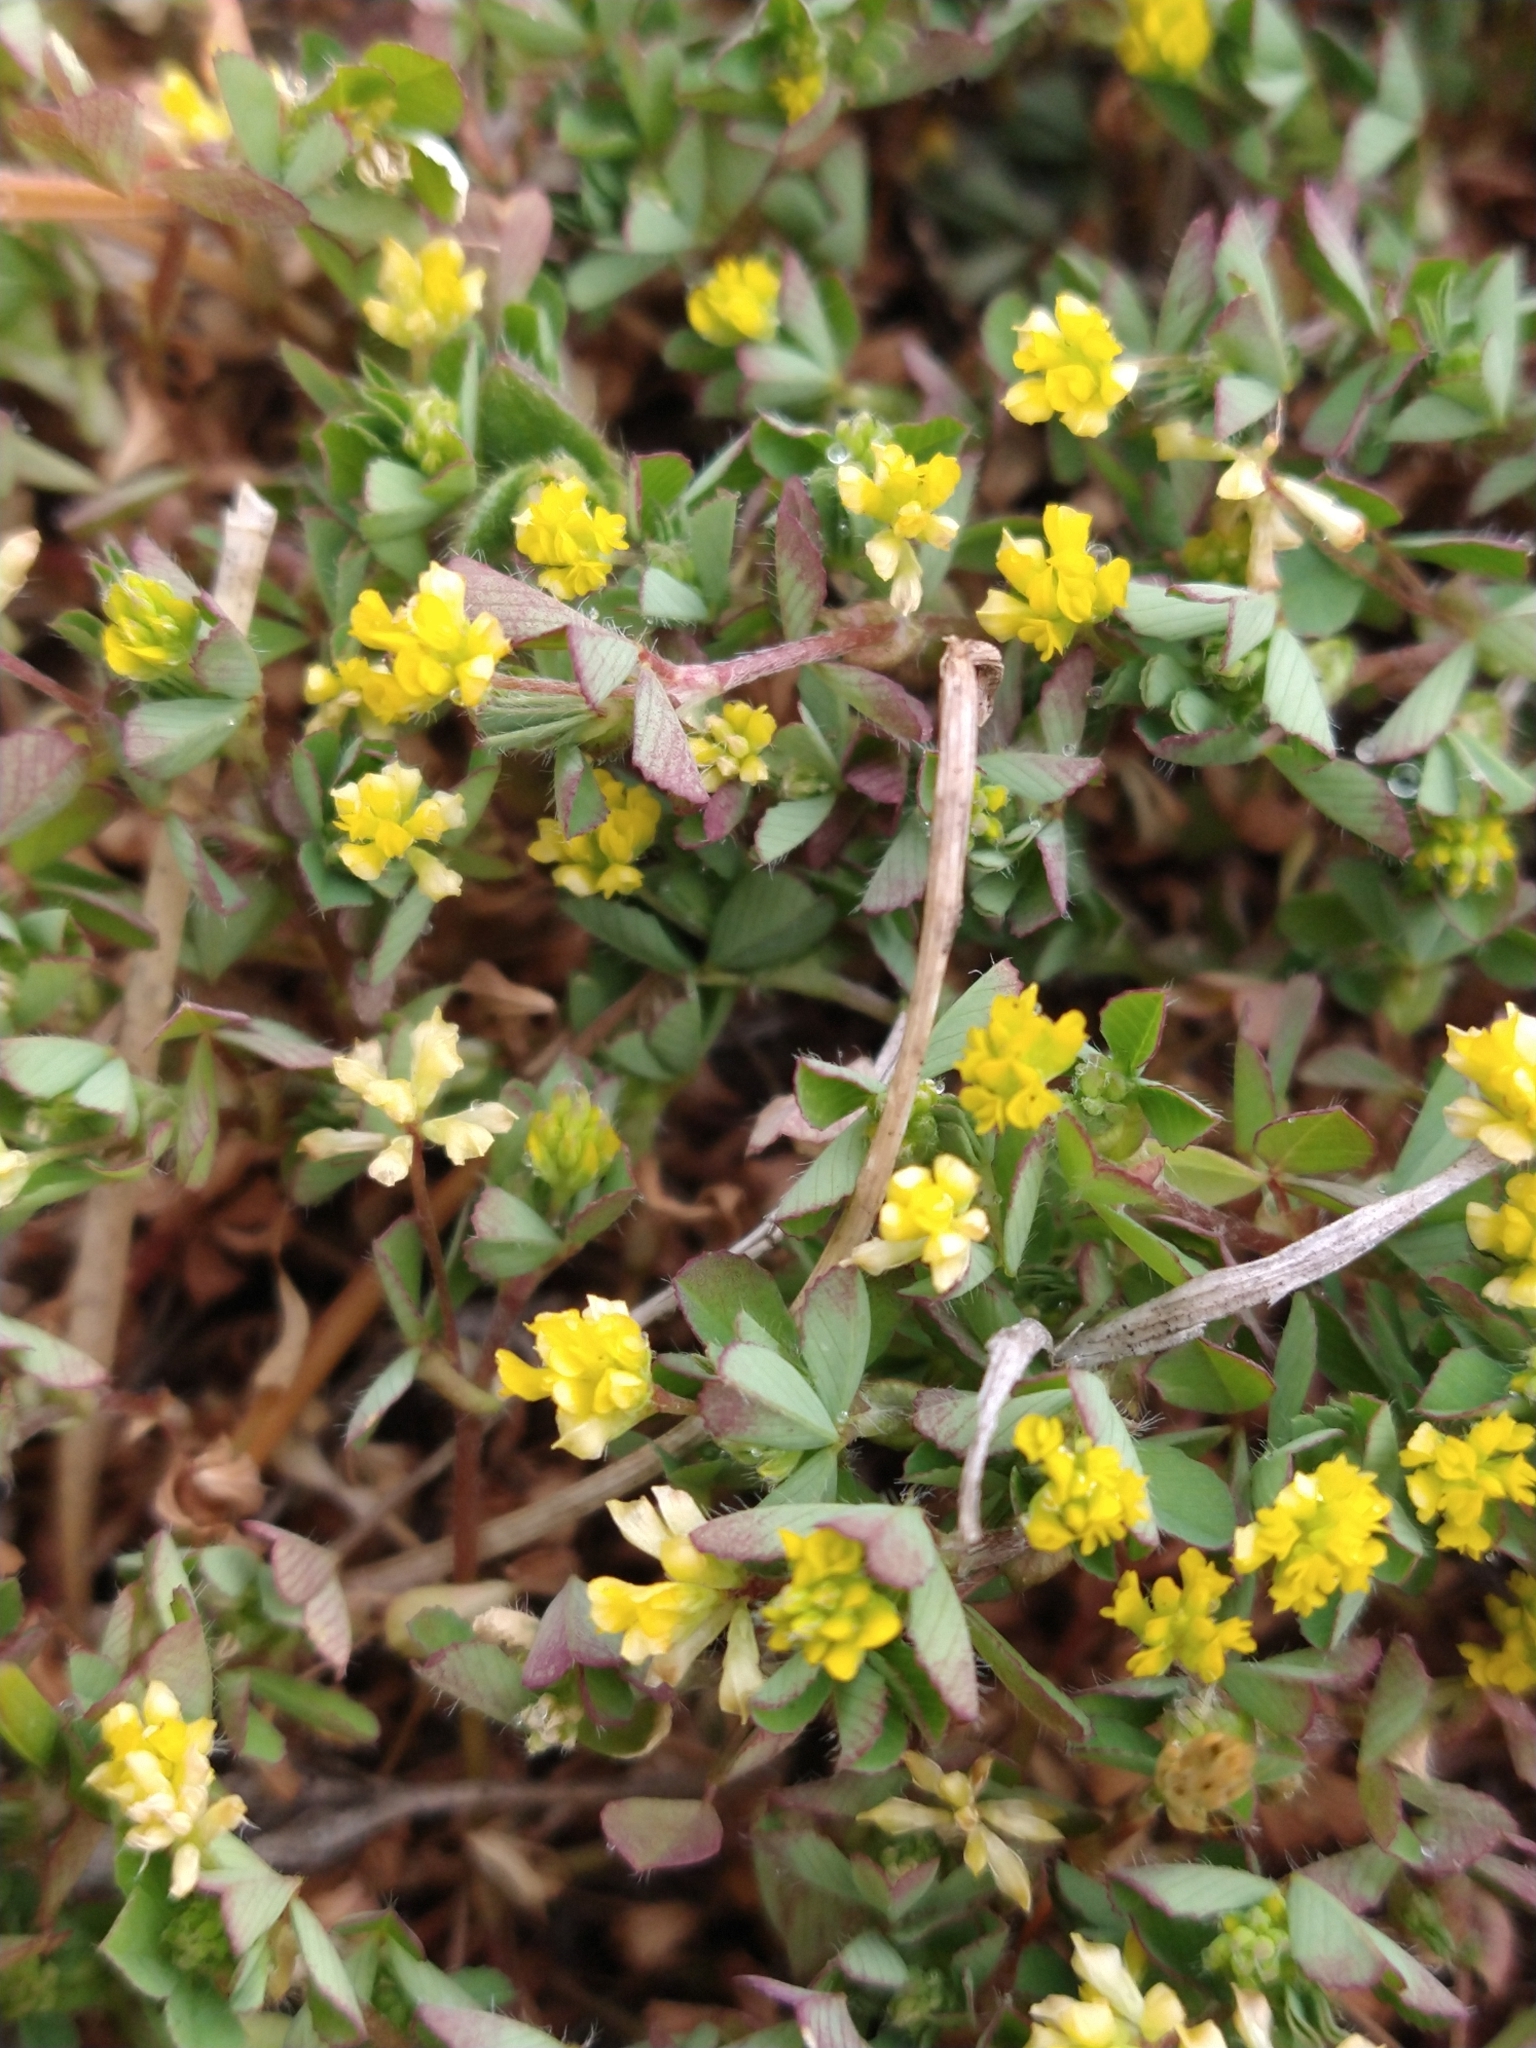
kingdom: Plantae
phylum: Tracheophyta
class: Magnoliopsida
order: Fabales
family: Fabaceae
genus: Trifolium
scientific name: Trifolium dubium
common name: Suckling clover
